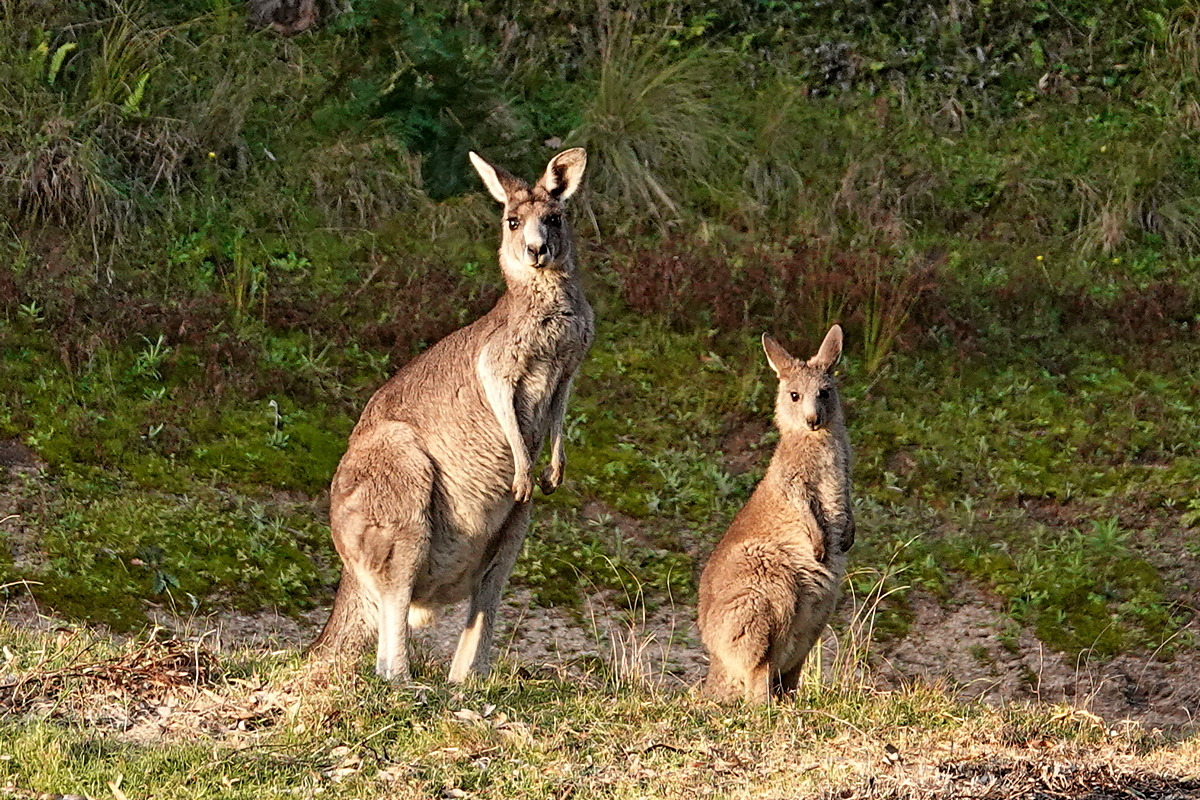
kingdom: Animalia
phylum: Chordata
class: Mammalia
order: Diprotodontia
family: Macropodidae
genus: Macropus
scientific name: Macropus giganteus
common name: Eastern grey kangaroo
